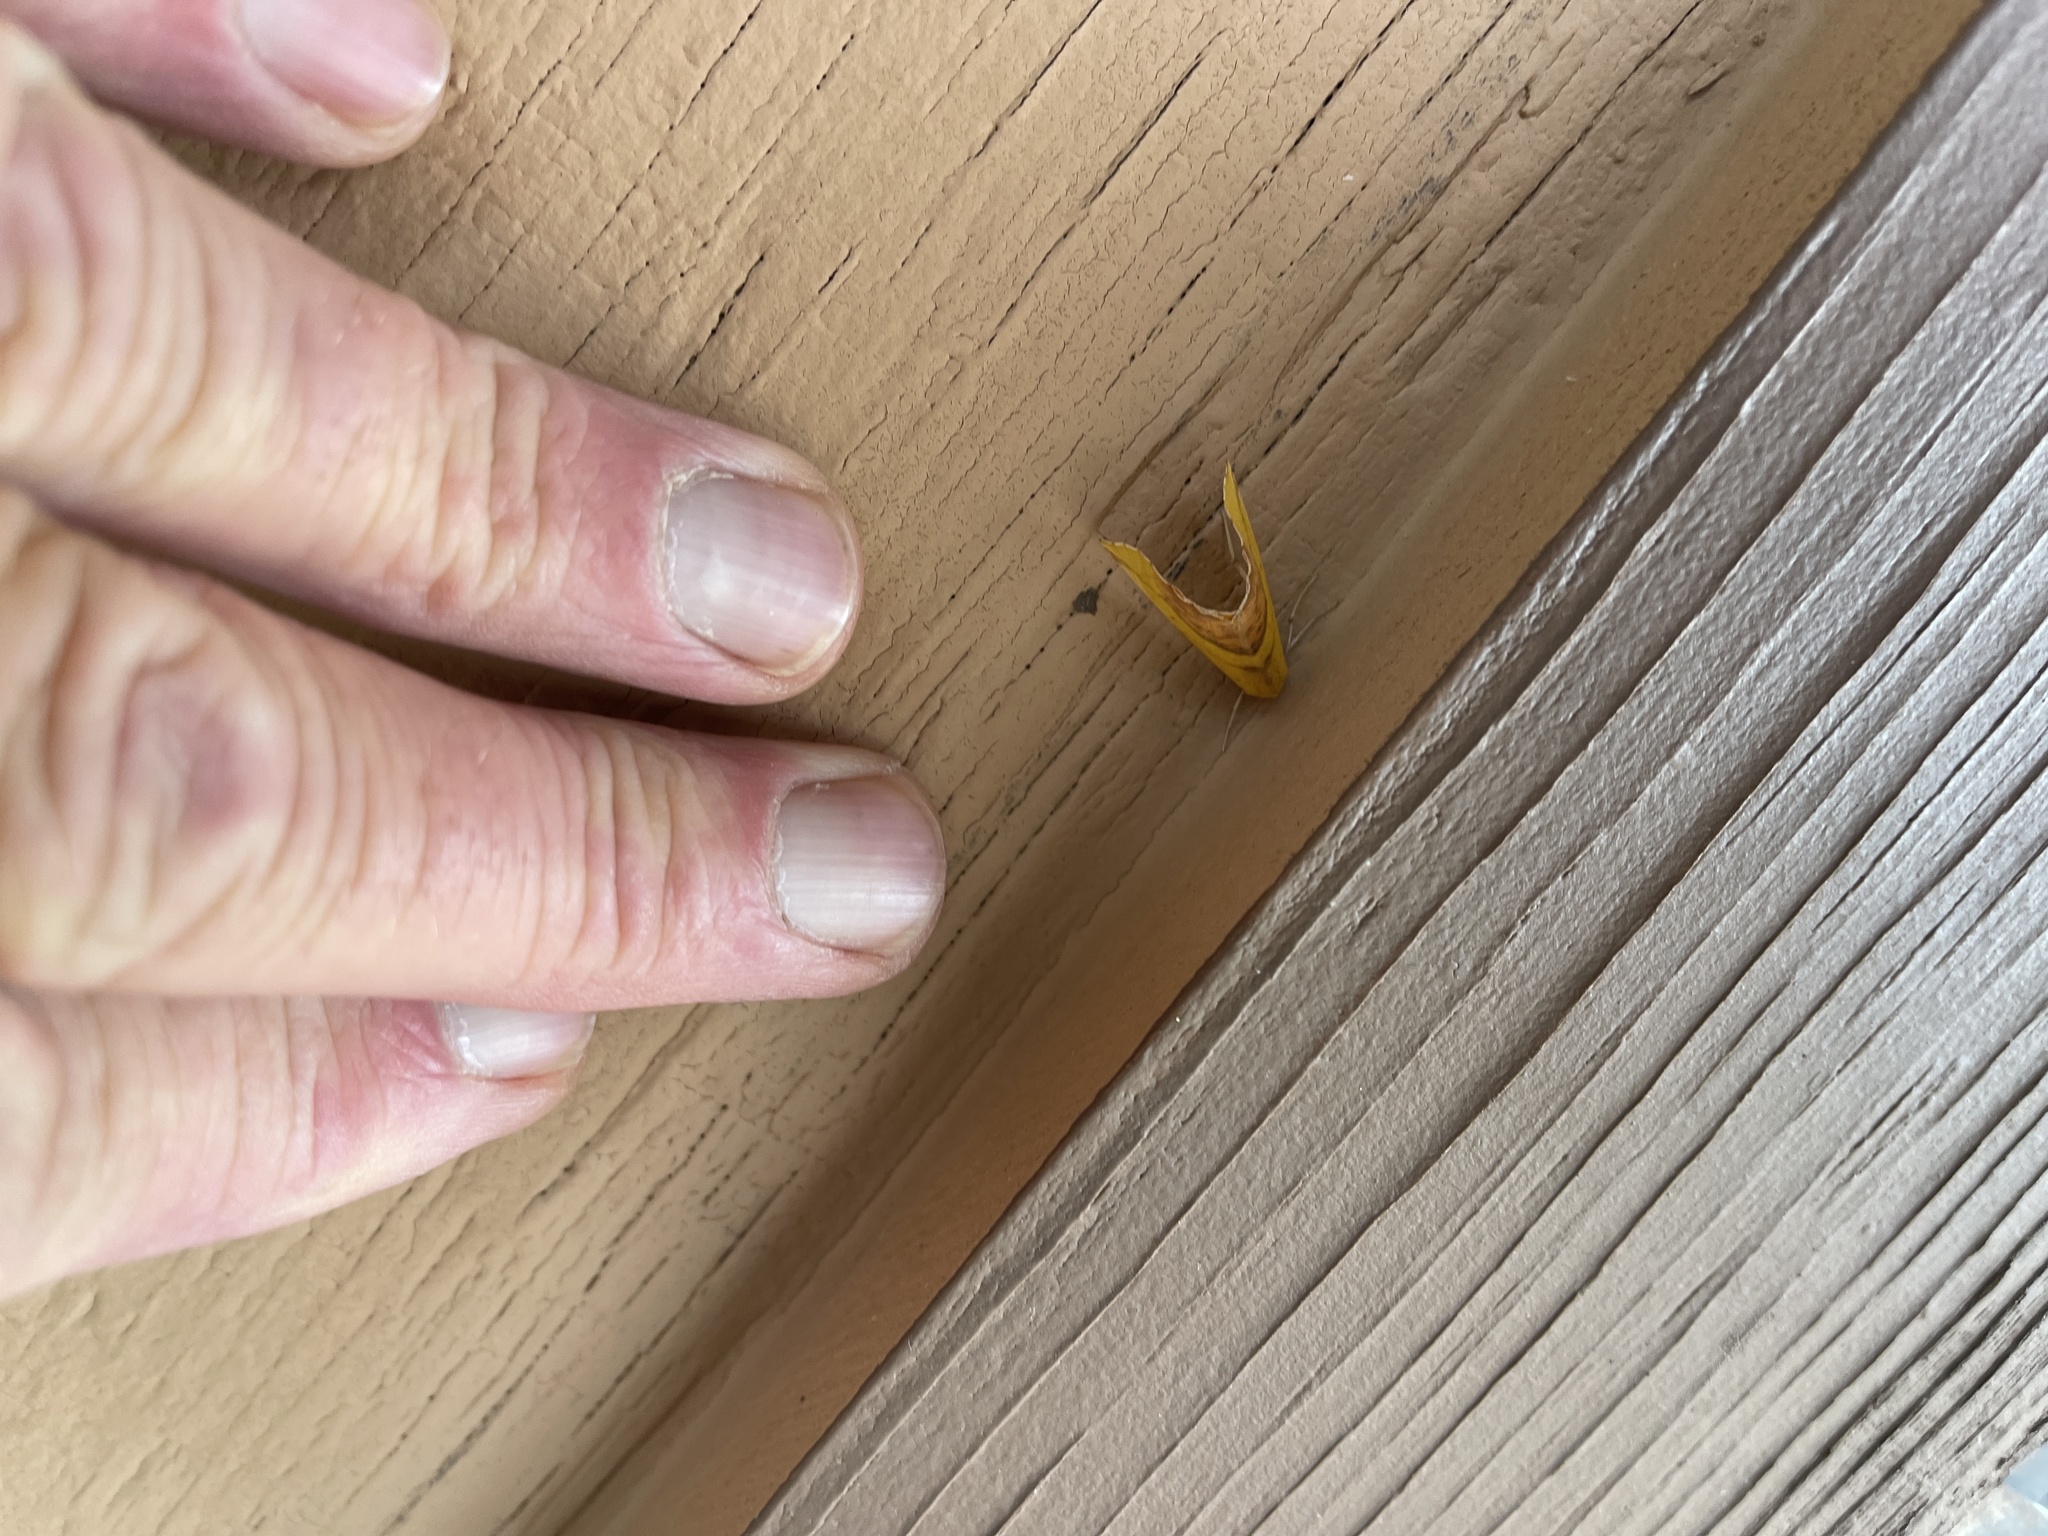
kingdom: Animalia
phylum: Arthropoda
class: Insecta
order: Lepidoptera
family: Geometridae
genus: Sicya
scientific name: Sicya macularia
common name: Sharp-lined yellow
